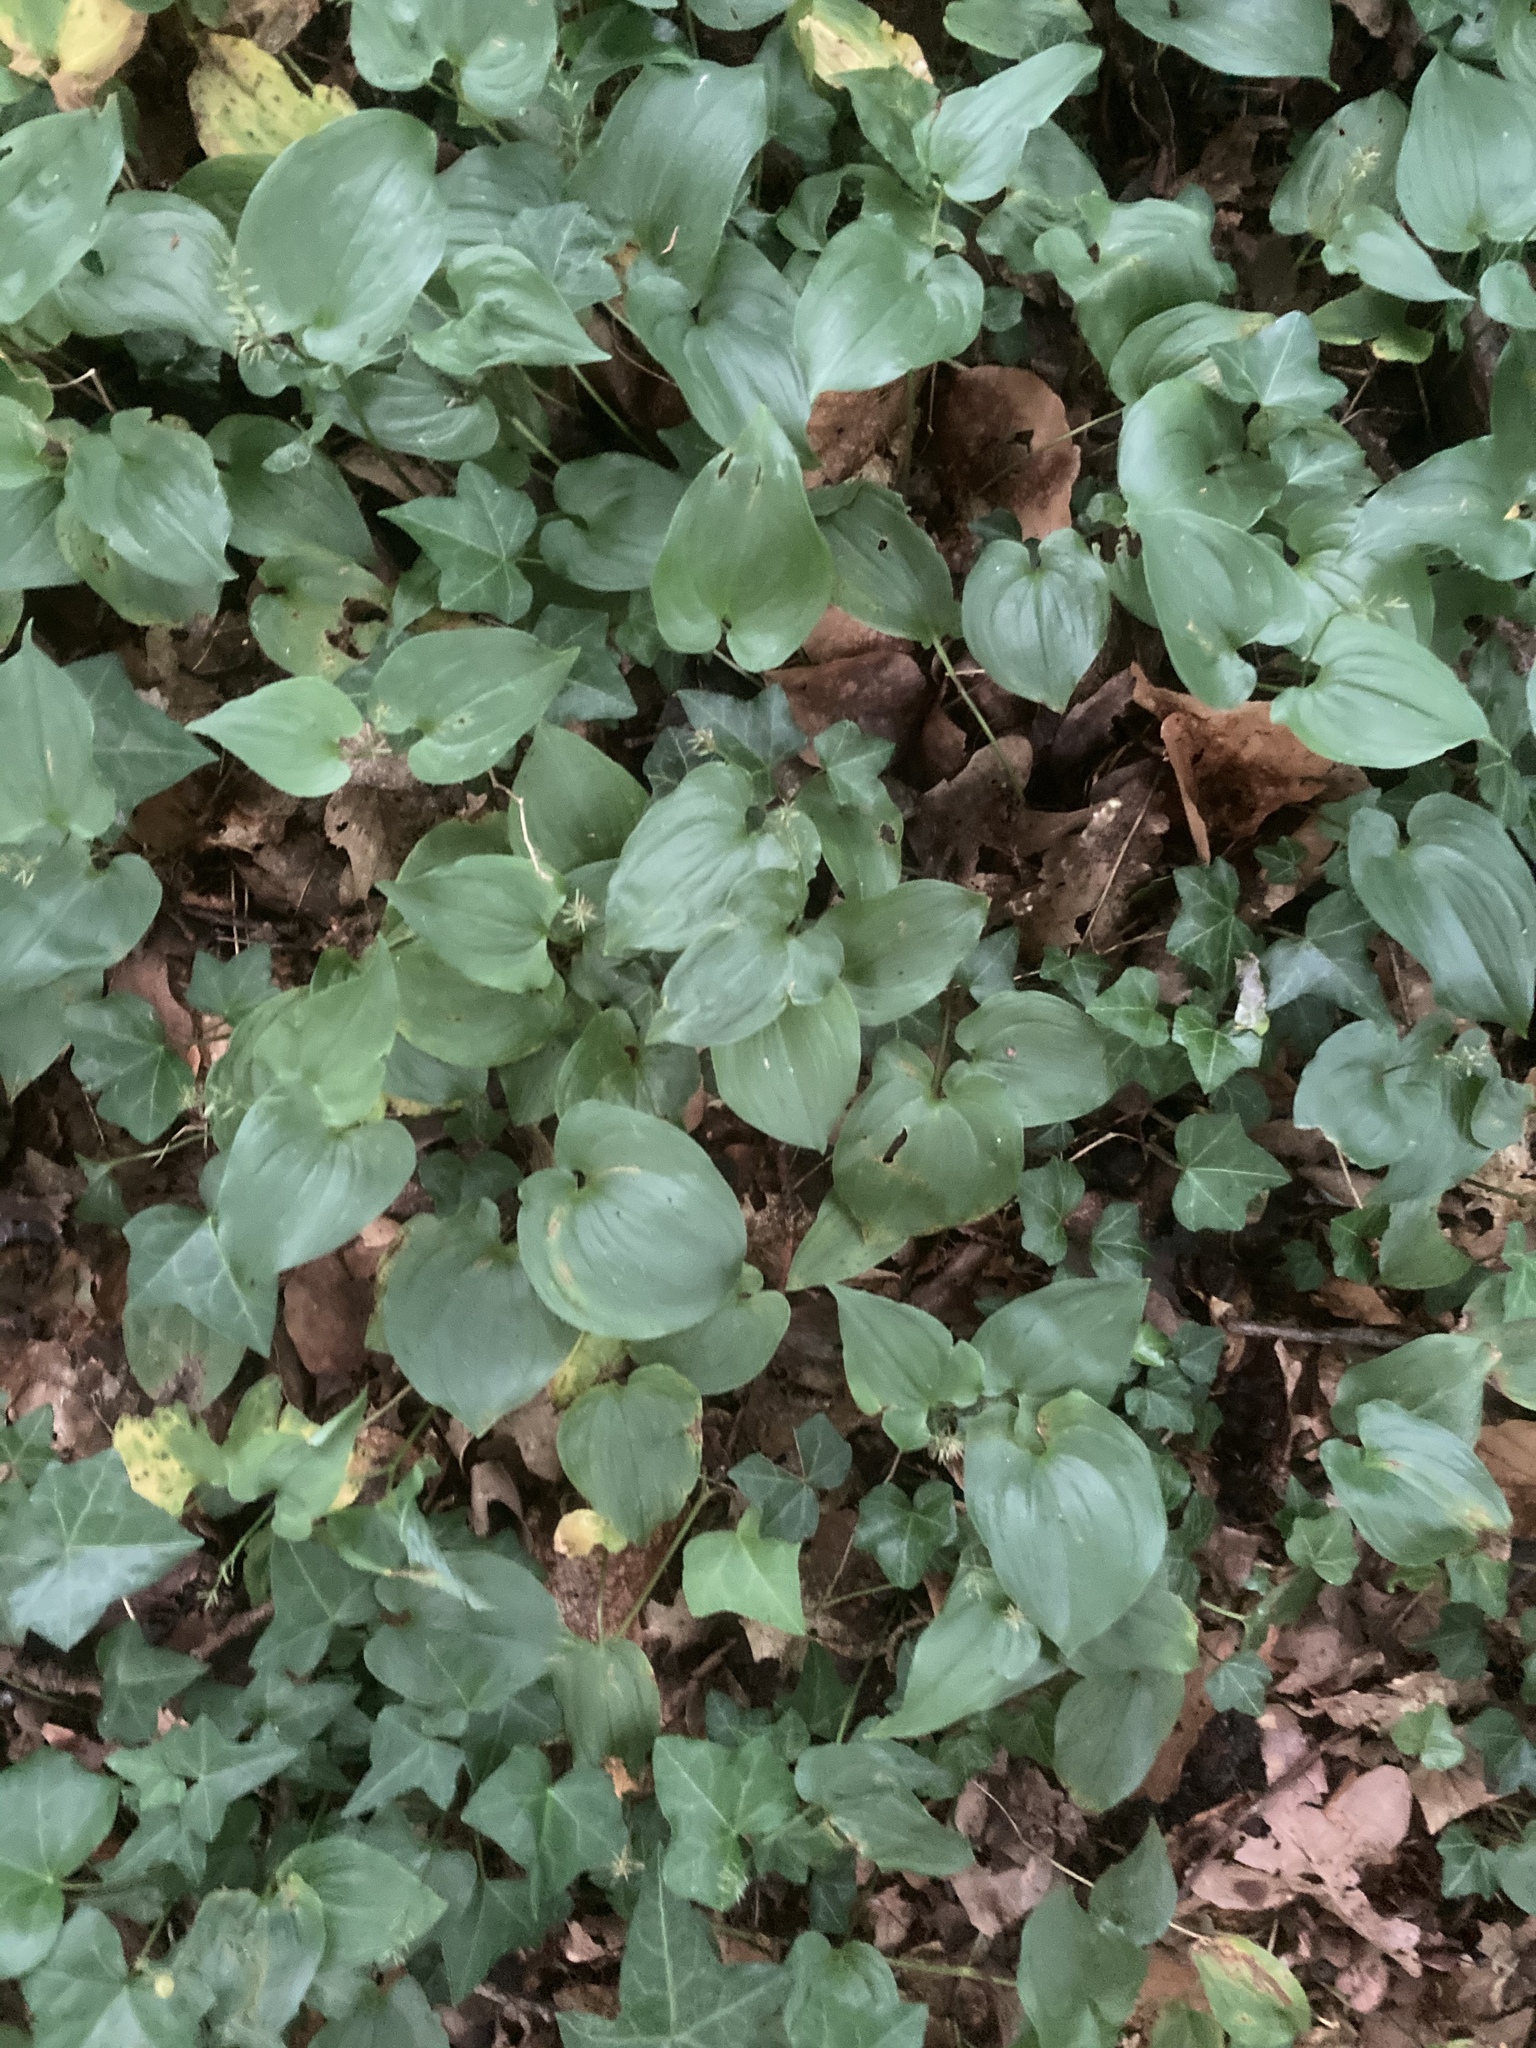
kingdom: Plantae
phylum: Tracheophyta
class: Liliopsida
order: Asparagales
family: Asparagaceae
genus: Maianthemum
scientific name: Maianthemum bifolium
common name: May lily
